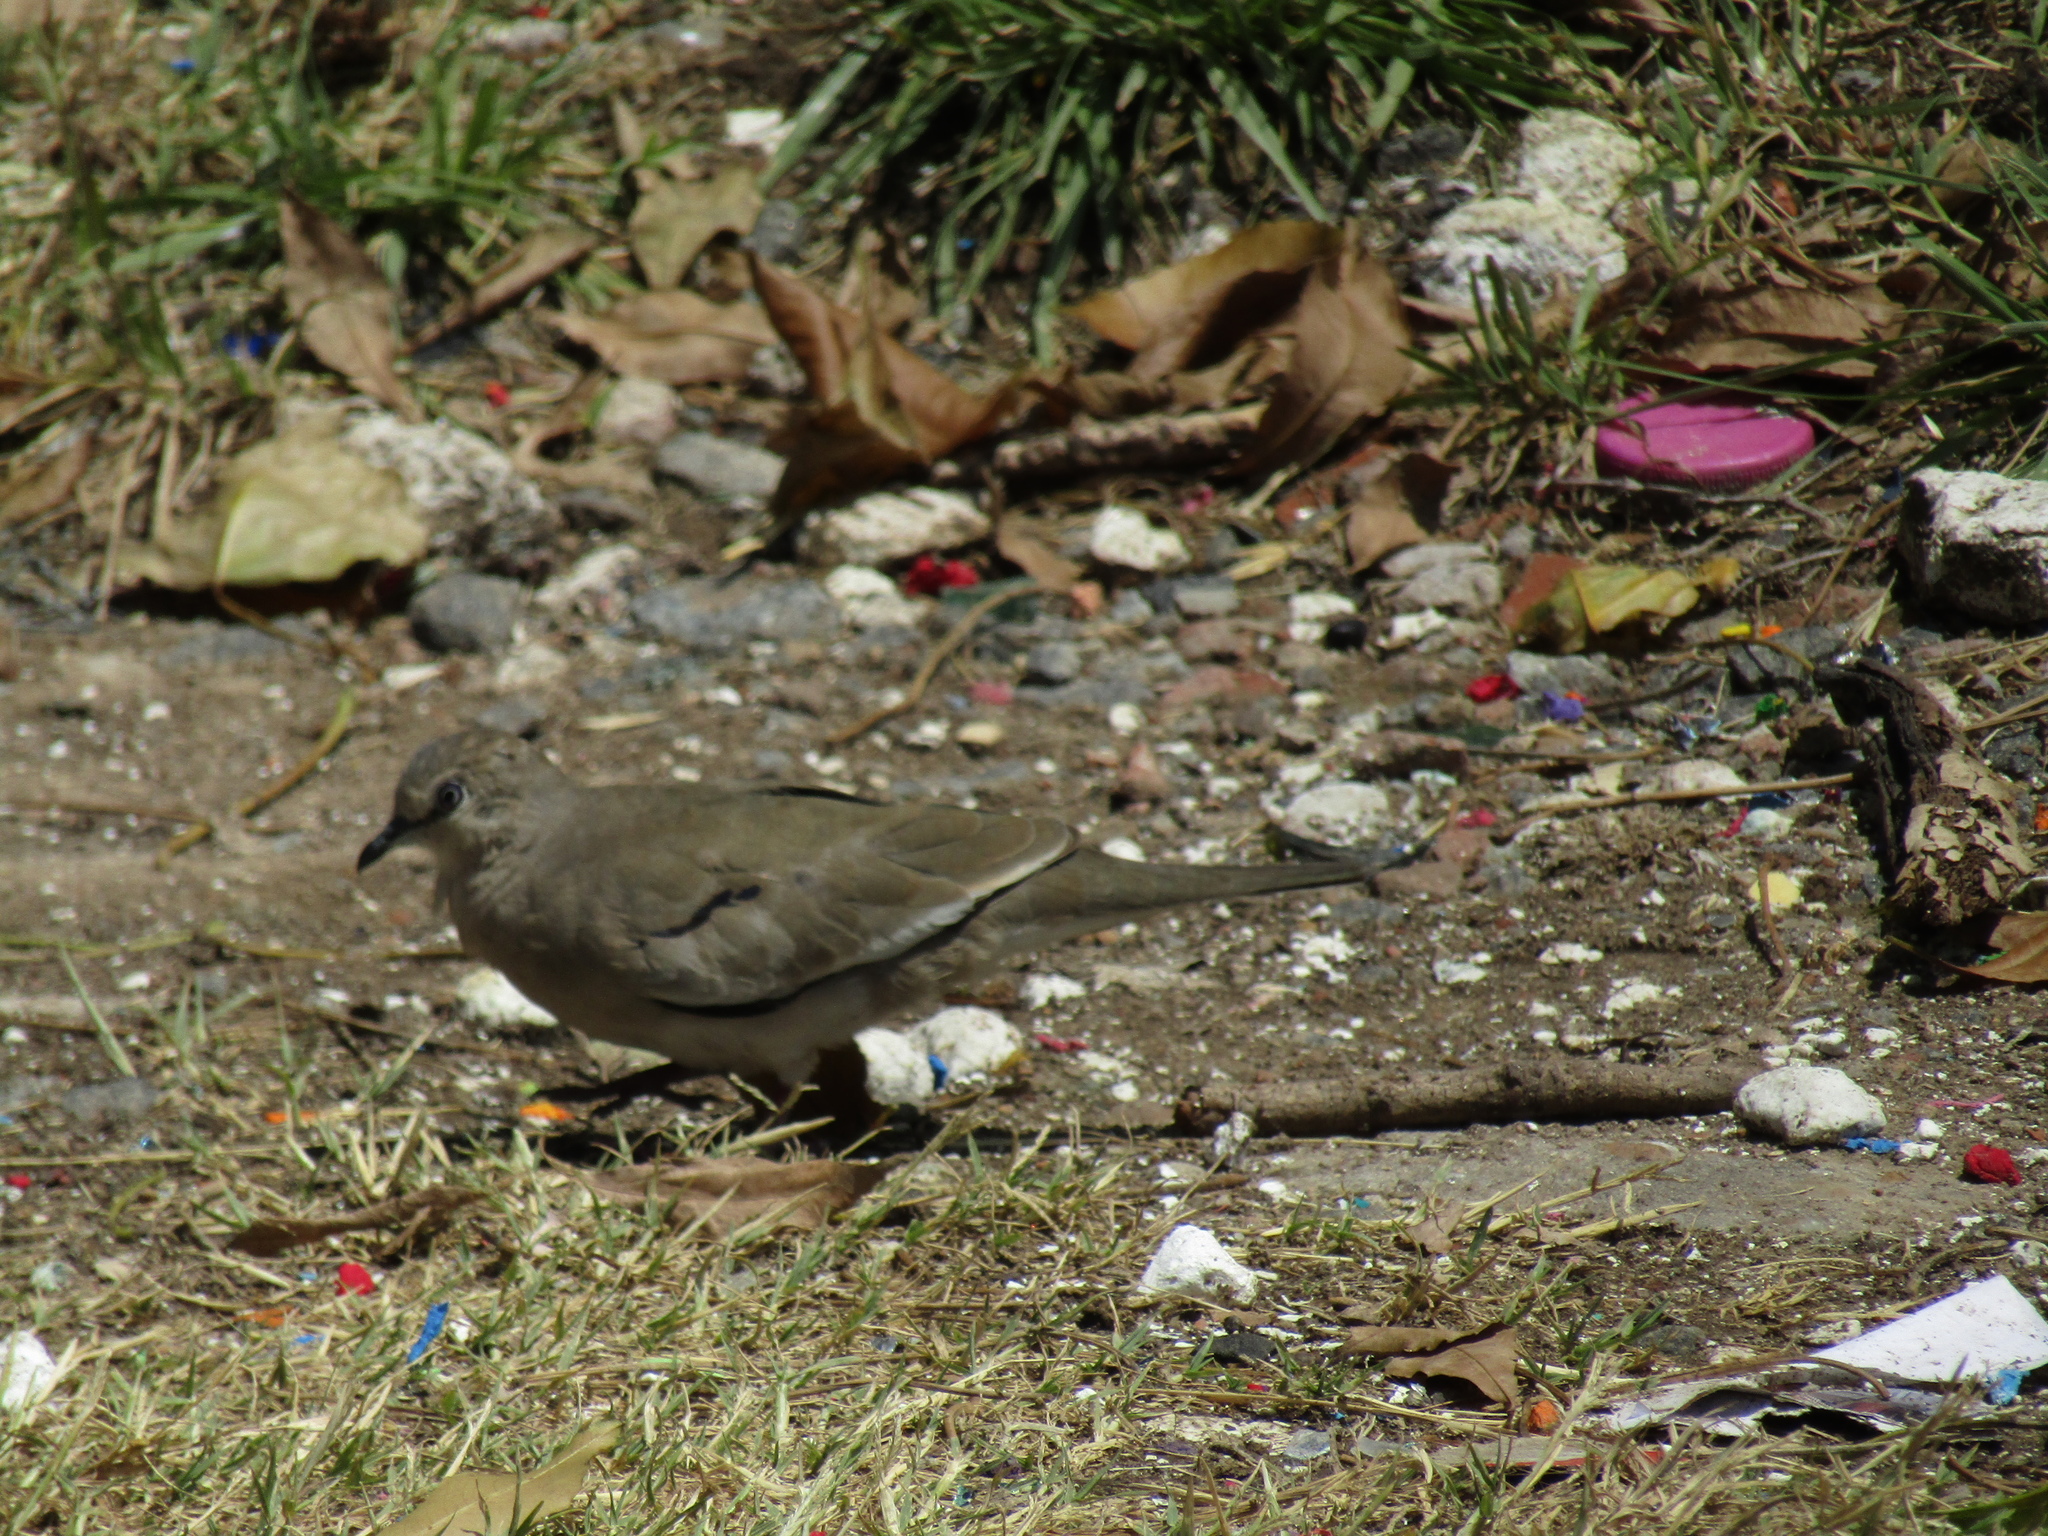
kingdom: Animalia
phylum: Chordata
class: Aves
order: Columbiformes
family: Columbidae
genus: Columbina
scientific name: Columbina picui
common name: Picui ground dove
